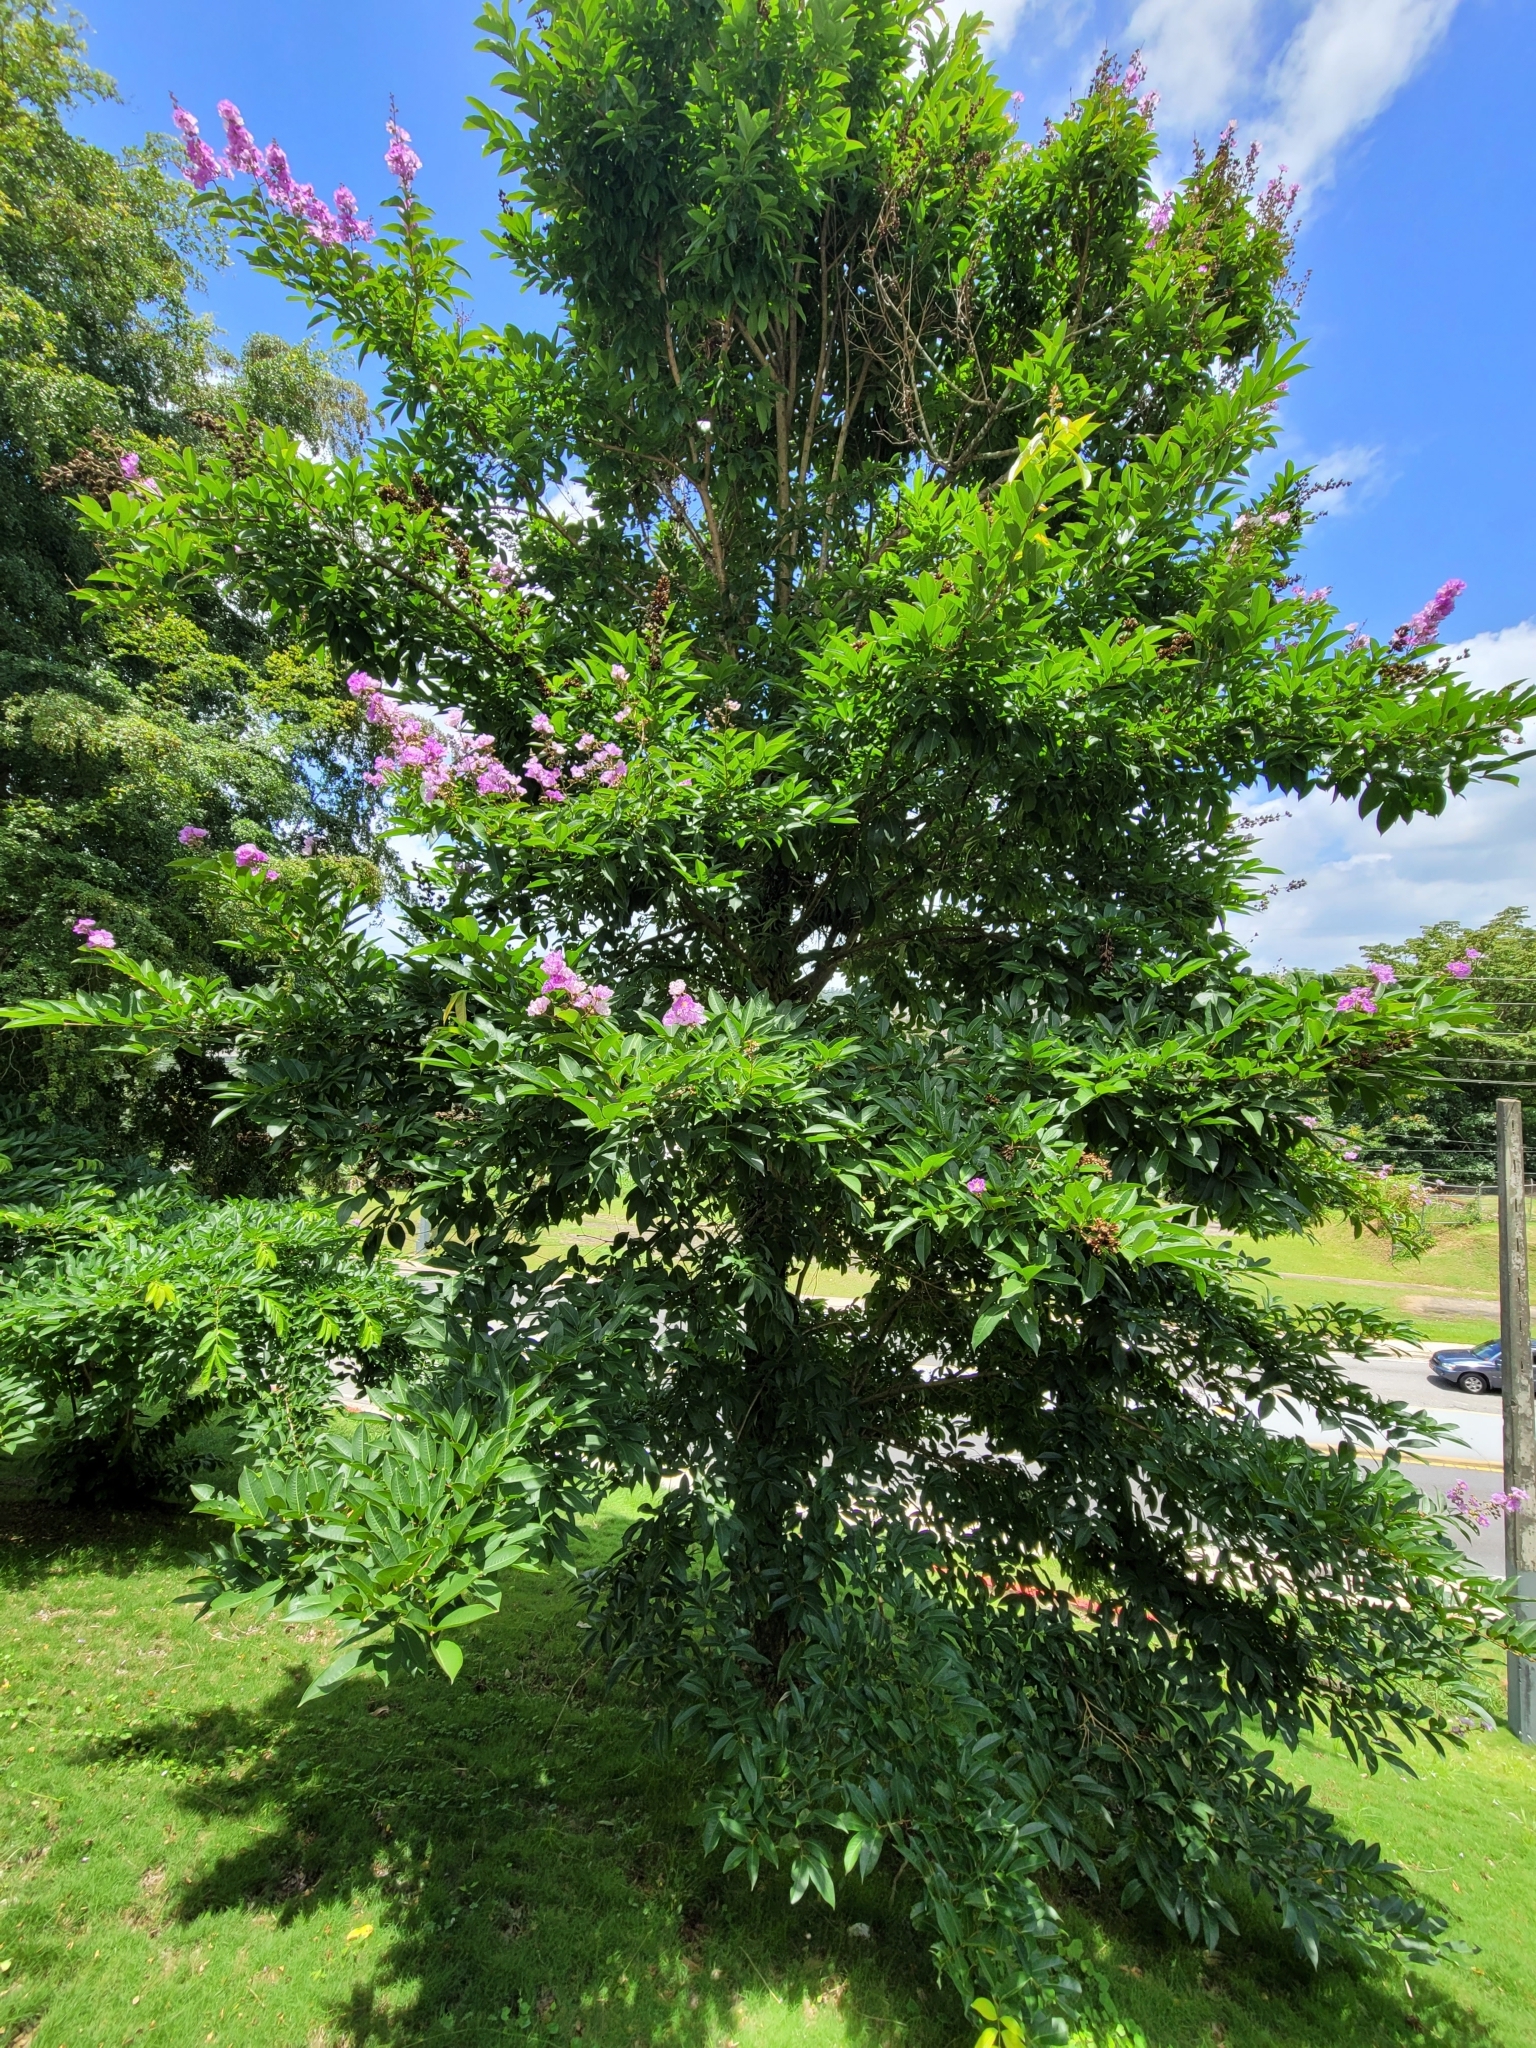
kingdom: Plantae
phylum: Tracheophyta
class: Magnoliopsida
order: Myrtales
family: Lythraceae
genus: Lagerstroemia
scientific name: Lagerstroemia speciosa
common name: Queen's crape-myrtle
